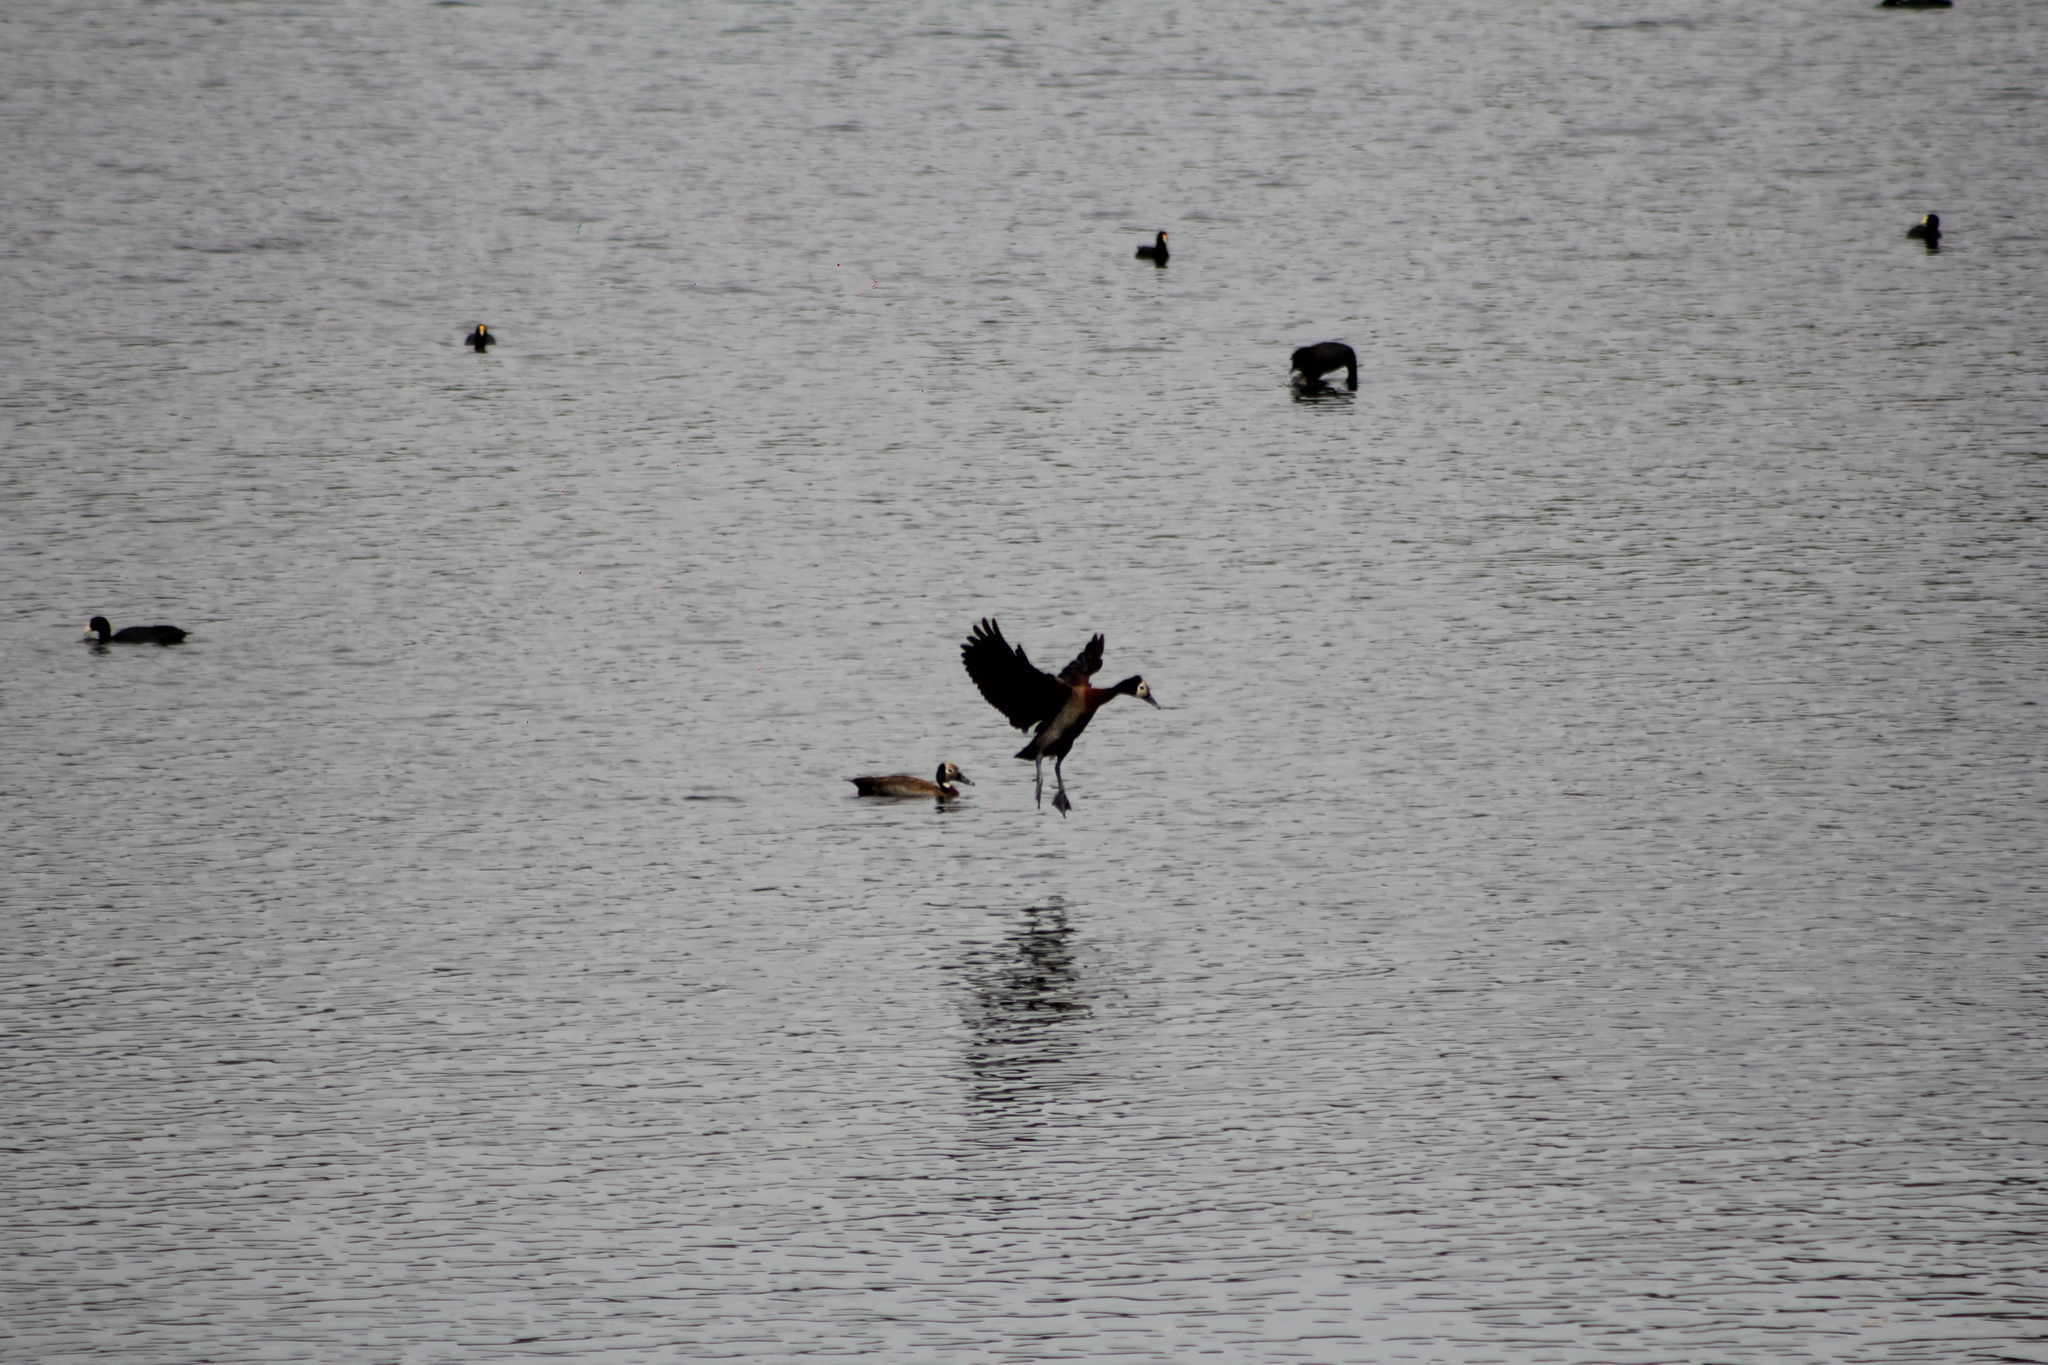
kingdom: Animalia
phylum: Chordata
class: Aves
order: Anseriformes
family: Anatidae
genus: Dendrocygna
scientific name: Dendrocygna viduata
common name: White-faced whistling duck
